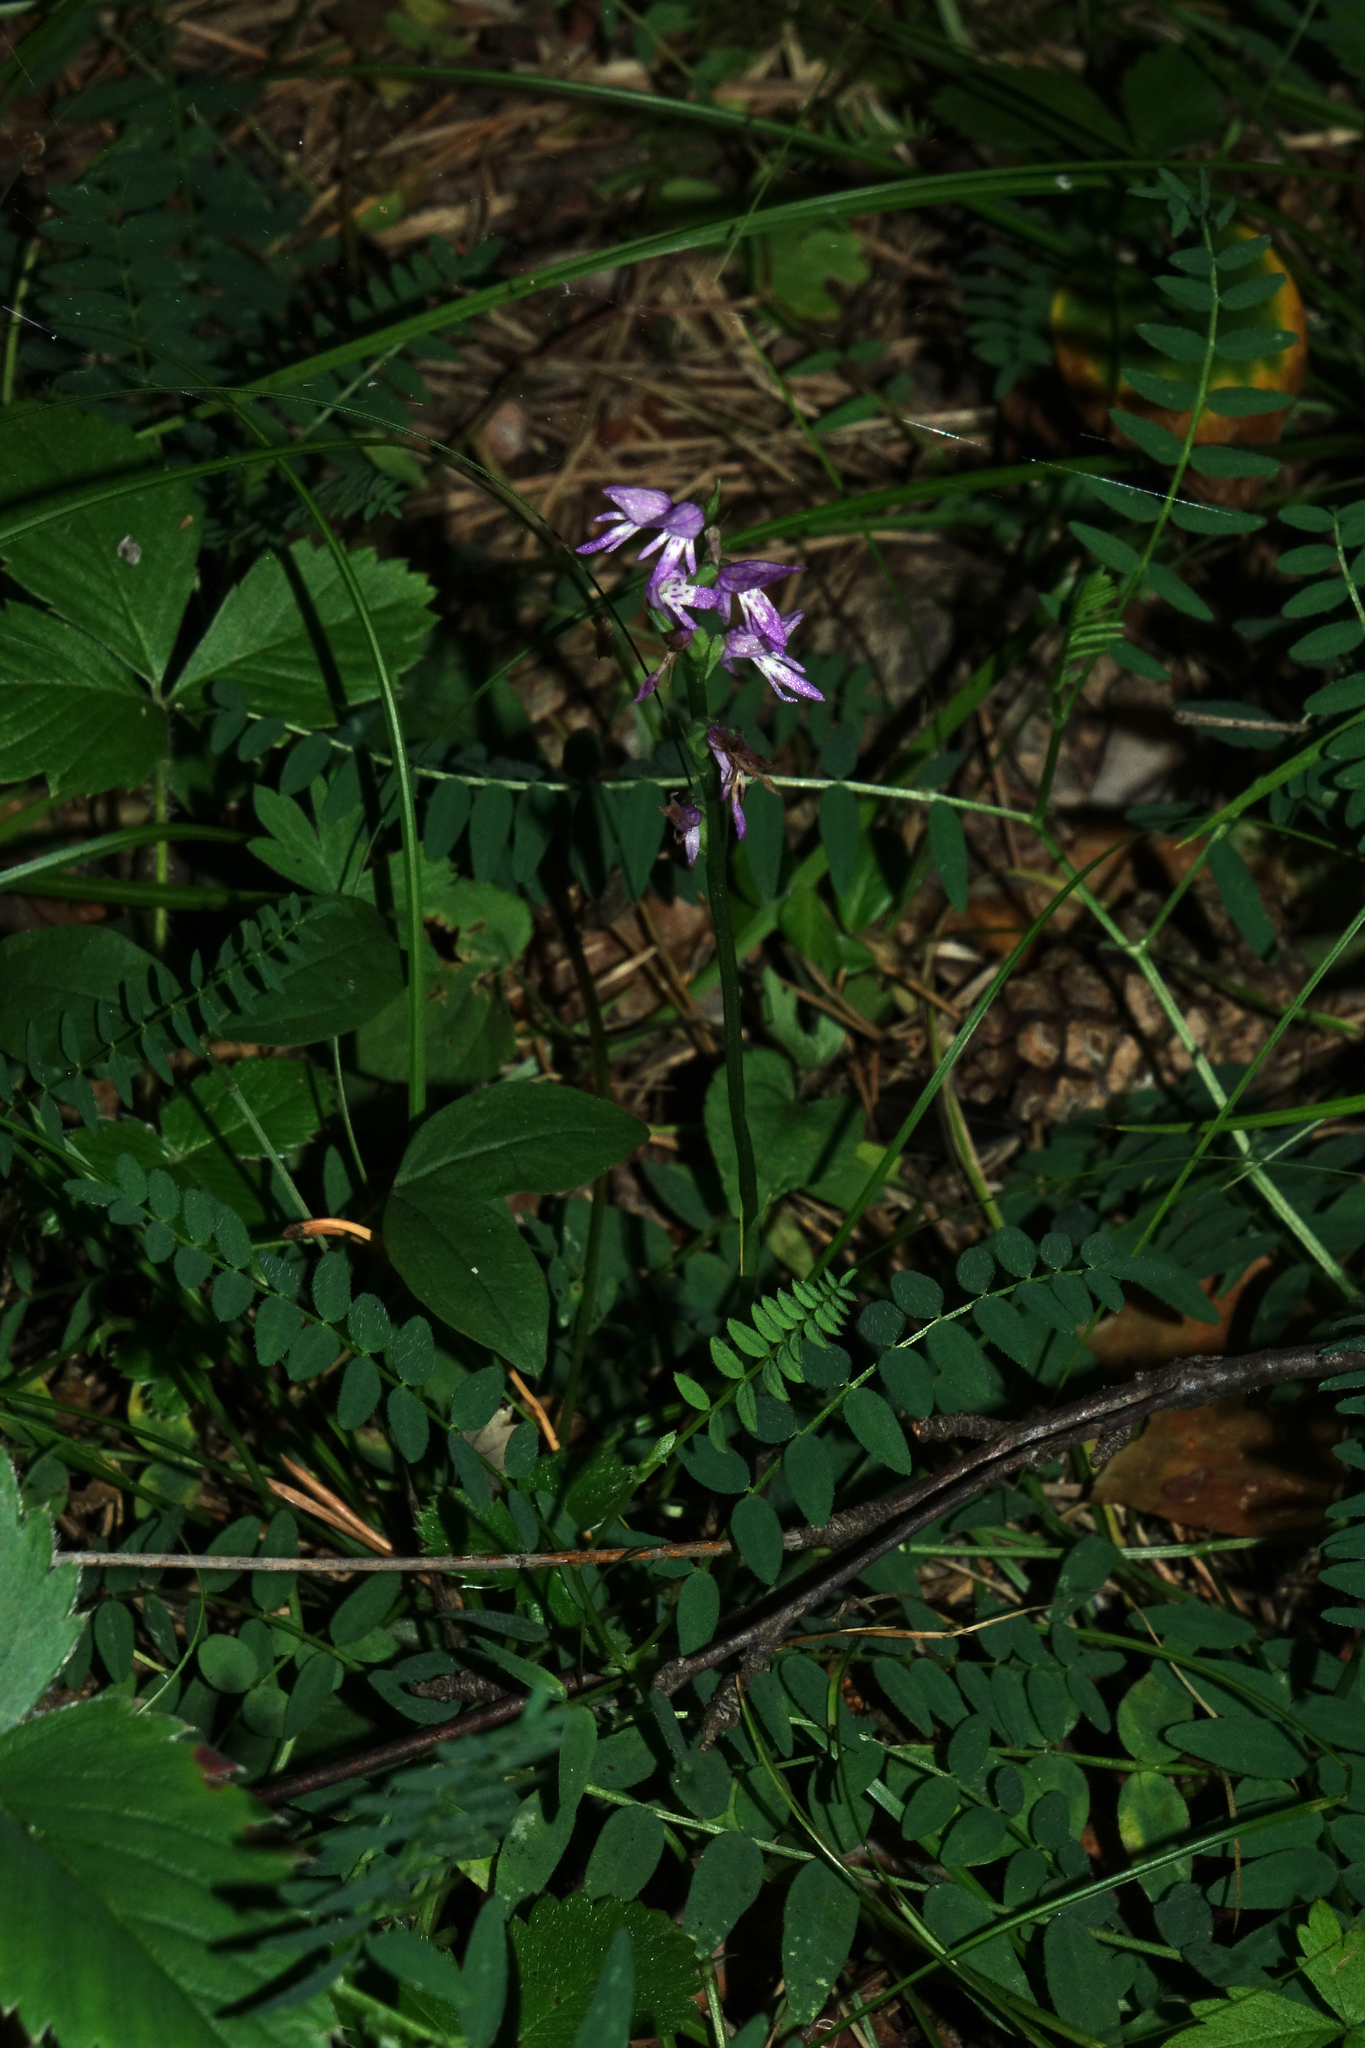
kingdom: Plantae
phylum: Tracheophyta
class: Liliopsida
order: Asparagales
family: Orchidaceae
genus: Hemipilia
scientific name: Hemipilia cucullata
